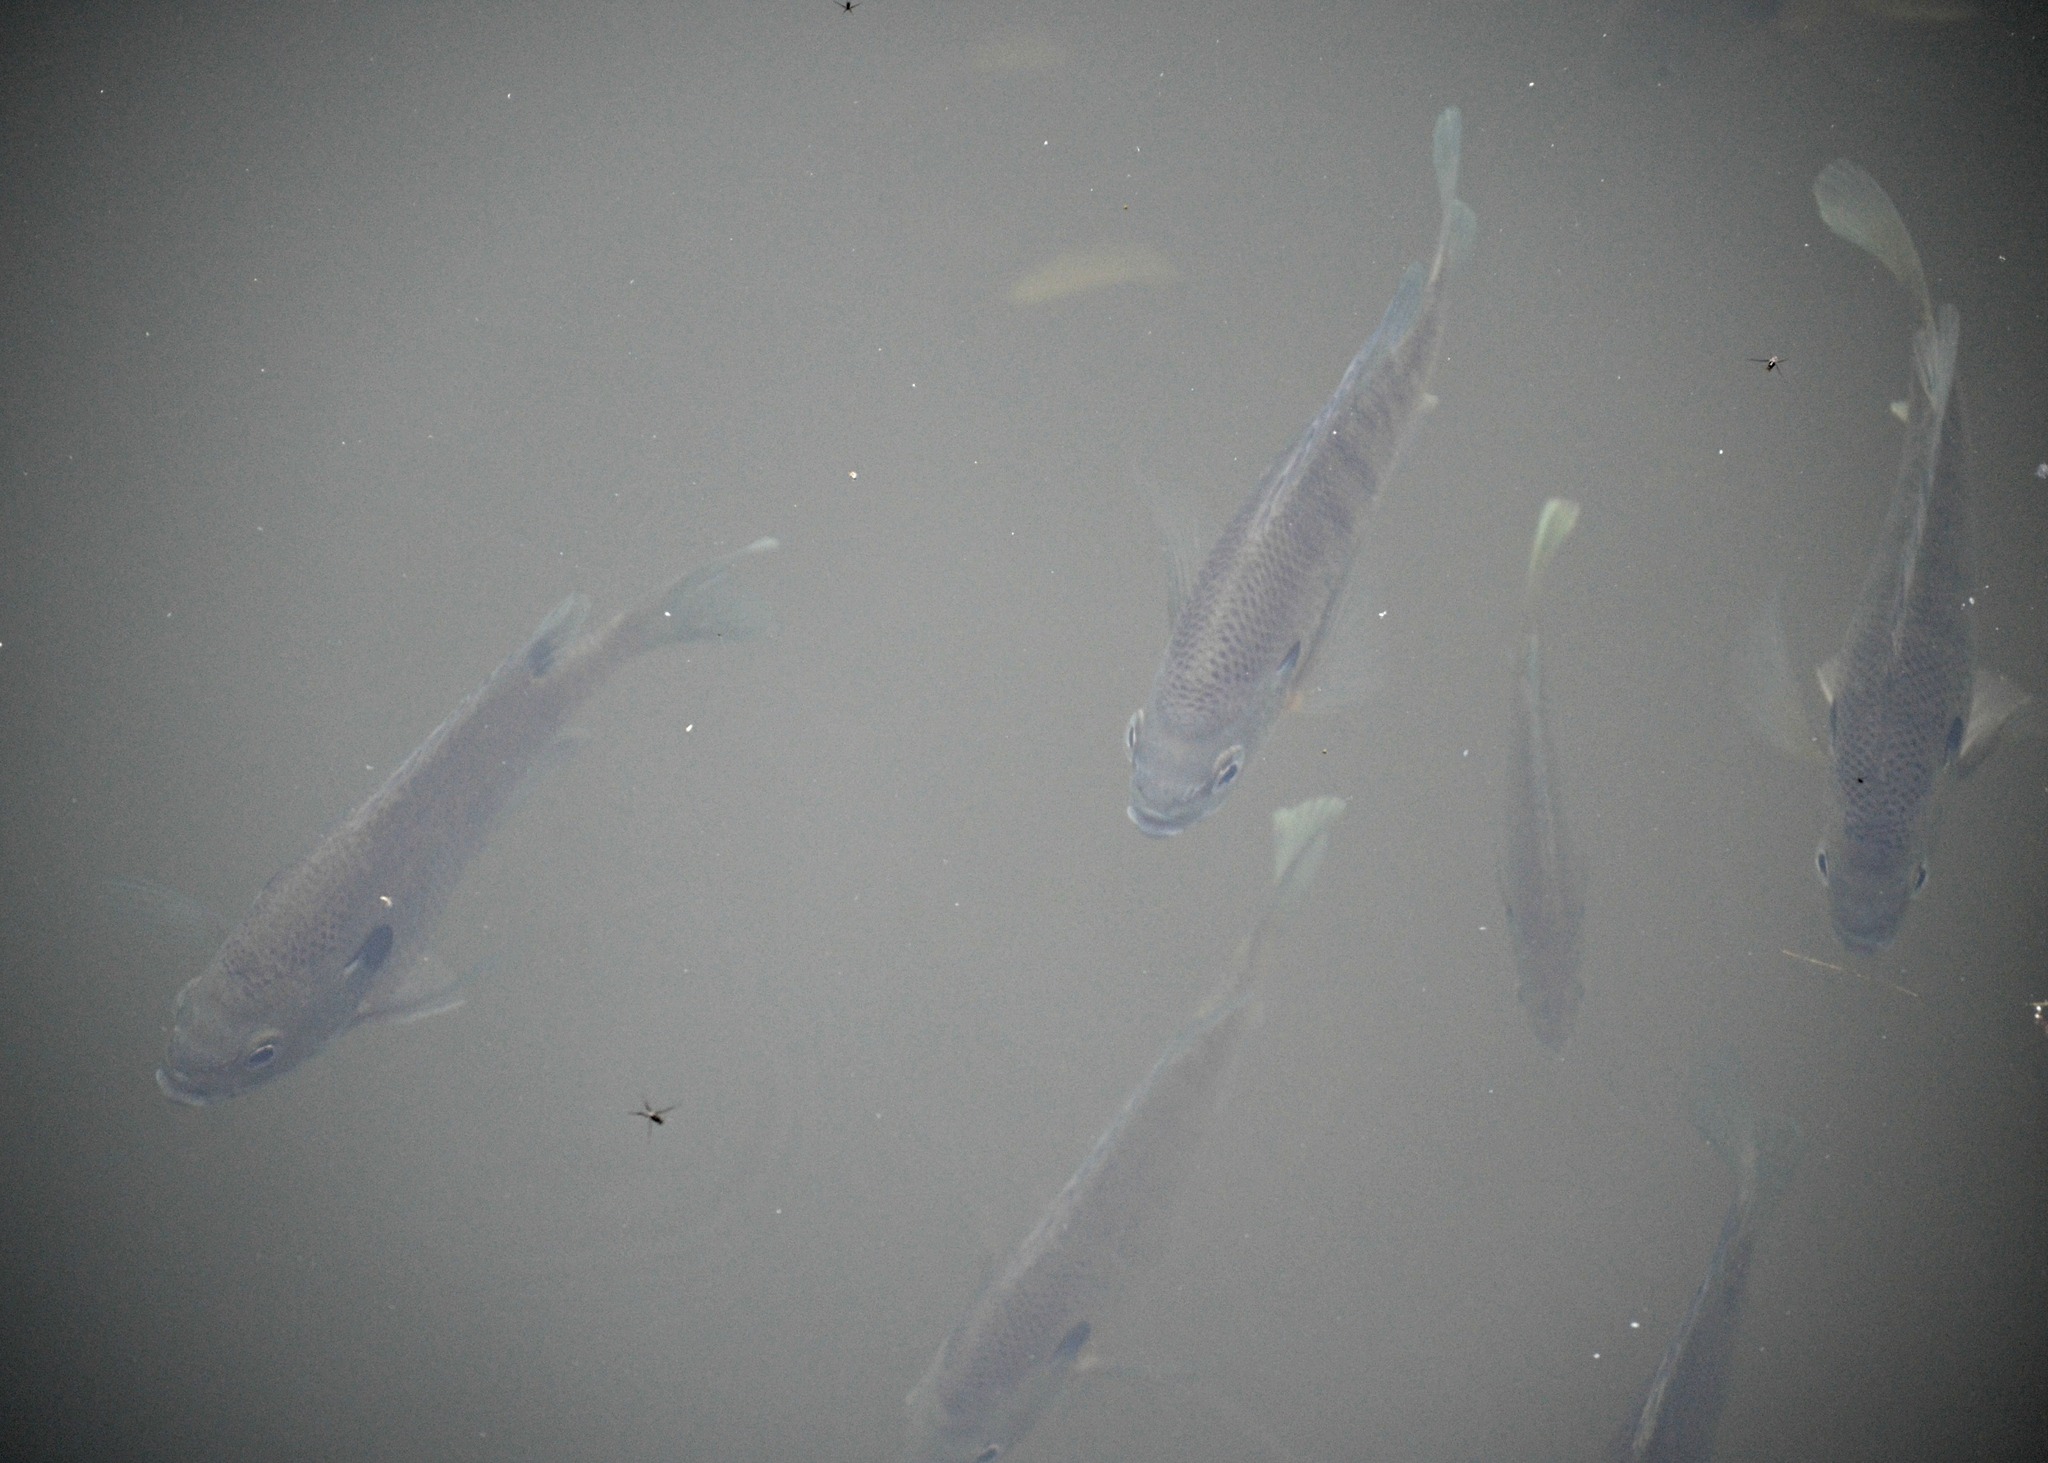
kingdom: Animalia
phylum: Chordata
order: Perciformes
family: Centrarchidae
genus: Lepomis
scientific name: Lepomis macrochirus
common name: Bluegill
